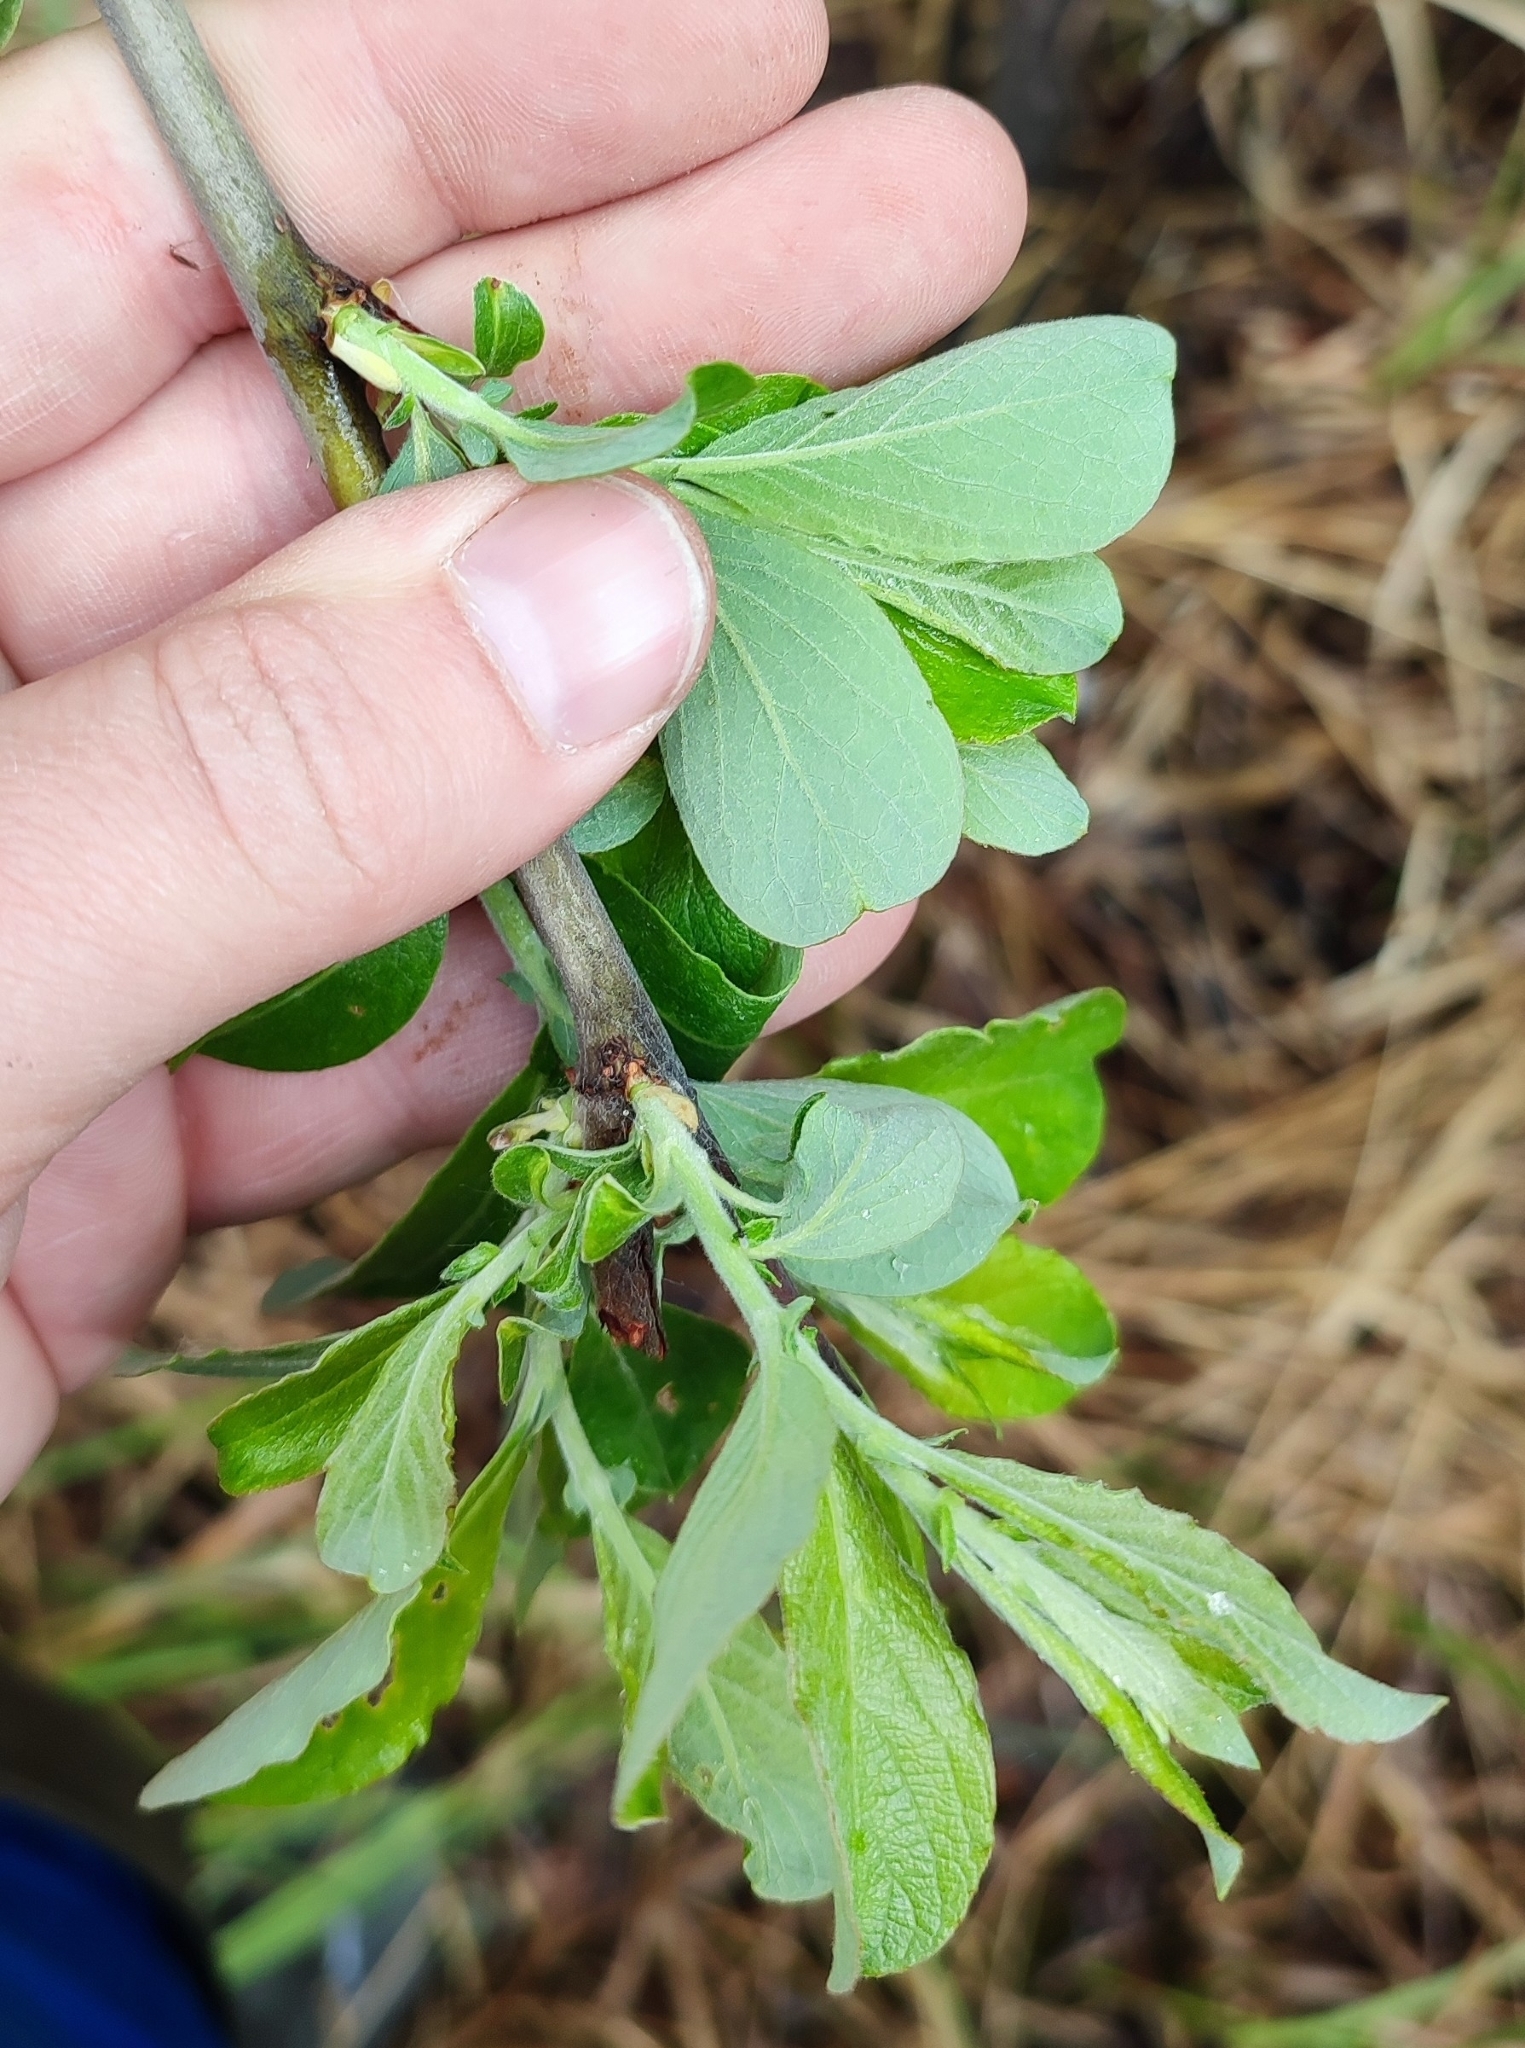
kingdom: Plantae
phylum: Tracheophyta
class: Magnoliopsida
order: Malpighiales
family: Salicaceae
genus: Salix
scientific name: Salix cinerea
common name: Common sallow
